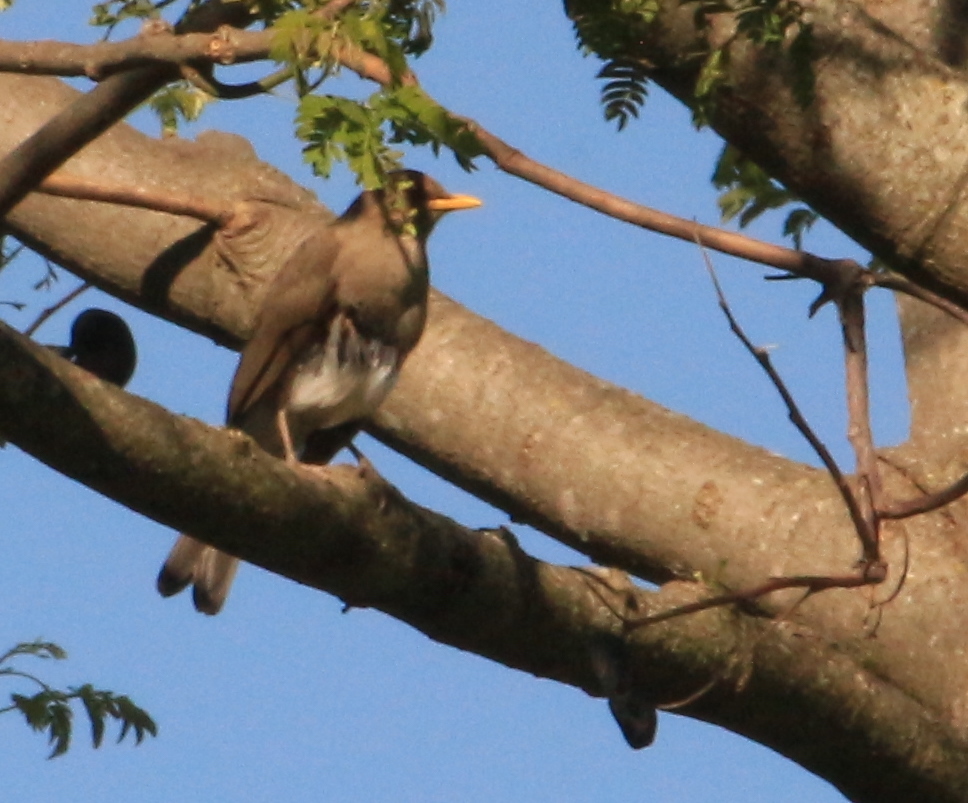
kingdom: Animalia
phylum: Chordata
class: Aves
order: Passeriformes
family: Turdidae
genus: Turdus
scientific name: Turdus amaurochalinus
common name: Creamy-bellied thrush
